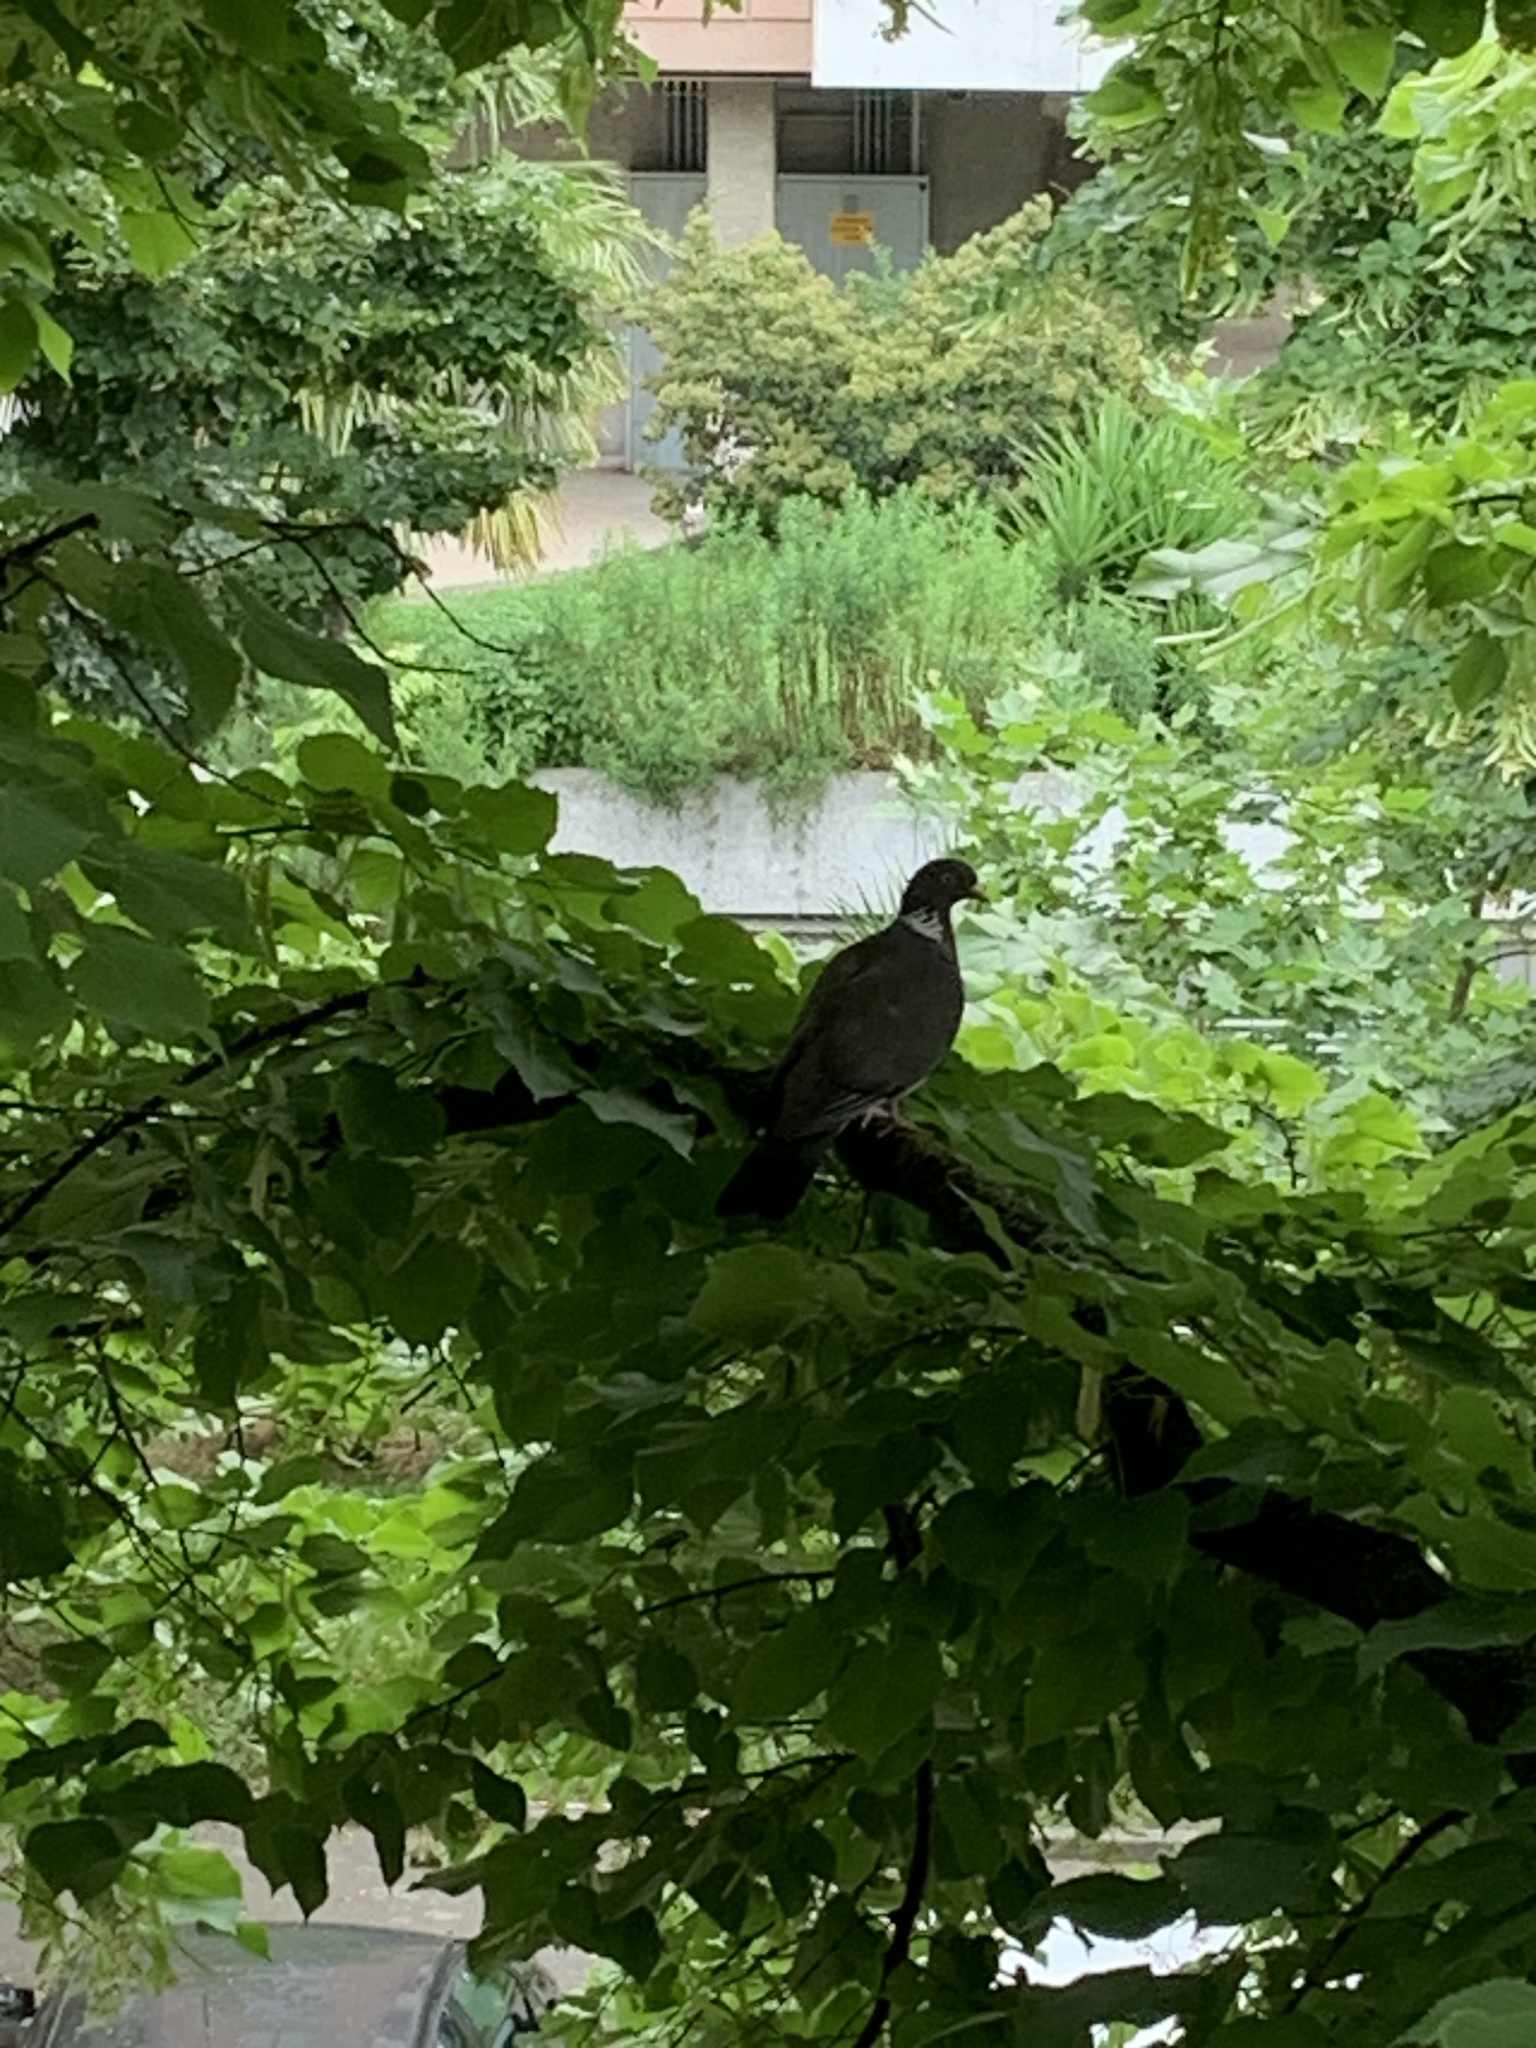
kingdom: Animalia
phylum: Chordata
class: Aves
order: Columbiformes
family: Columbidae
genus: Columba
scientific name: Columba palumbus
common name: Common wood pigeon
